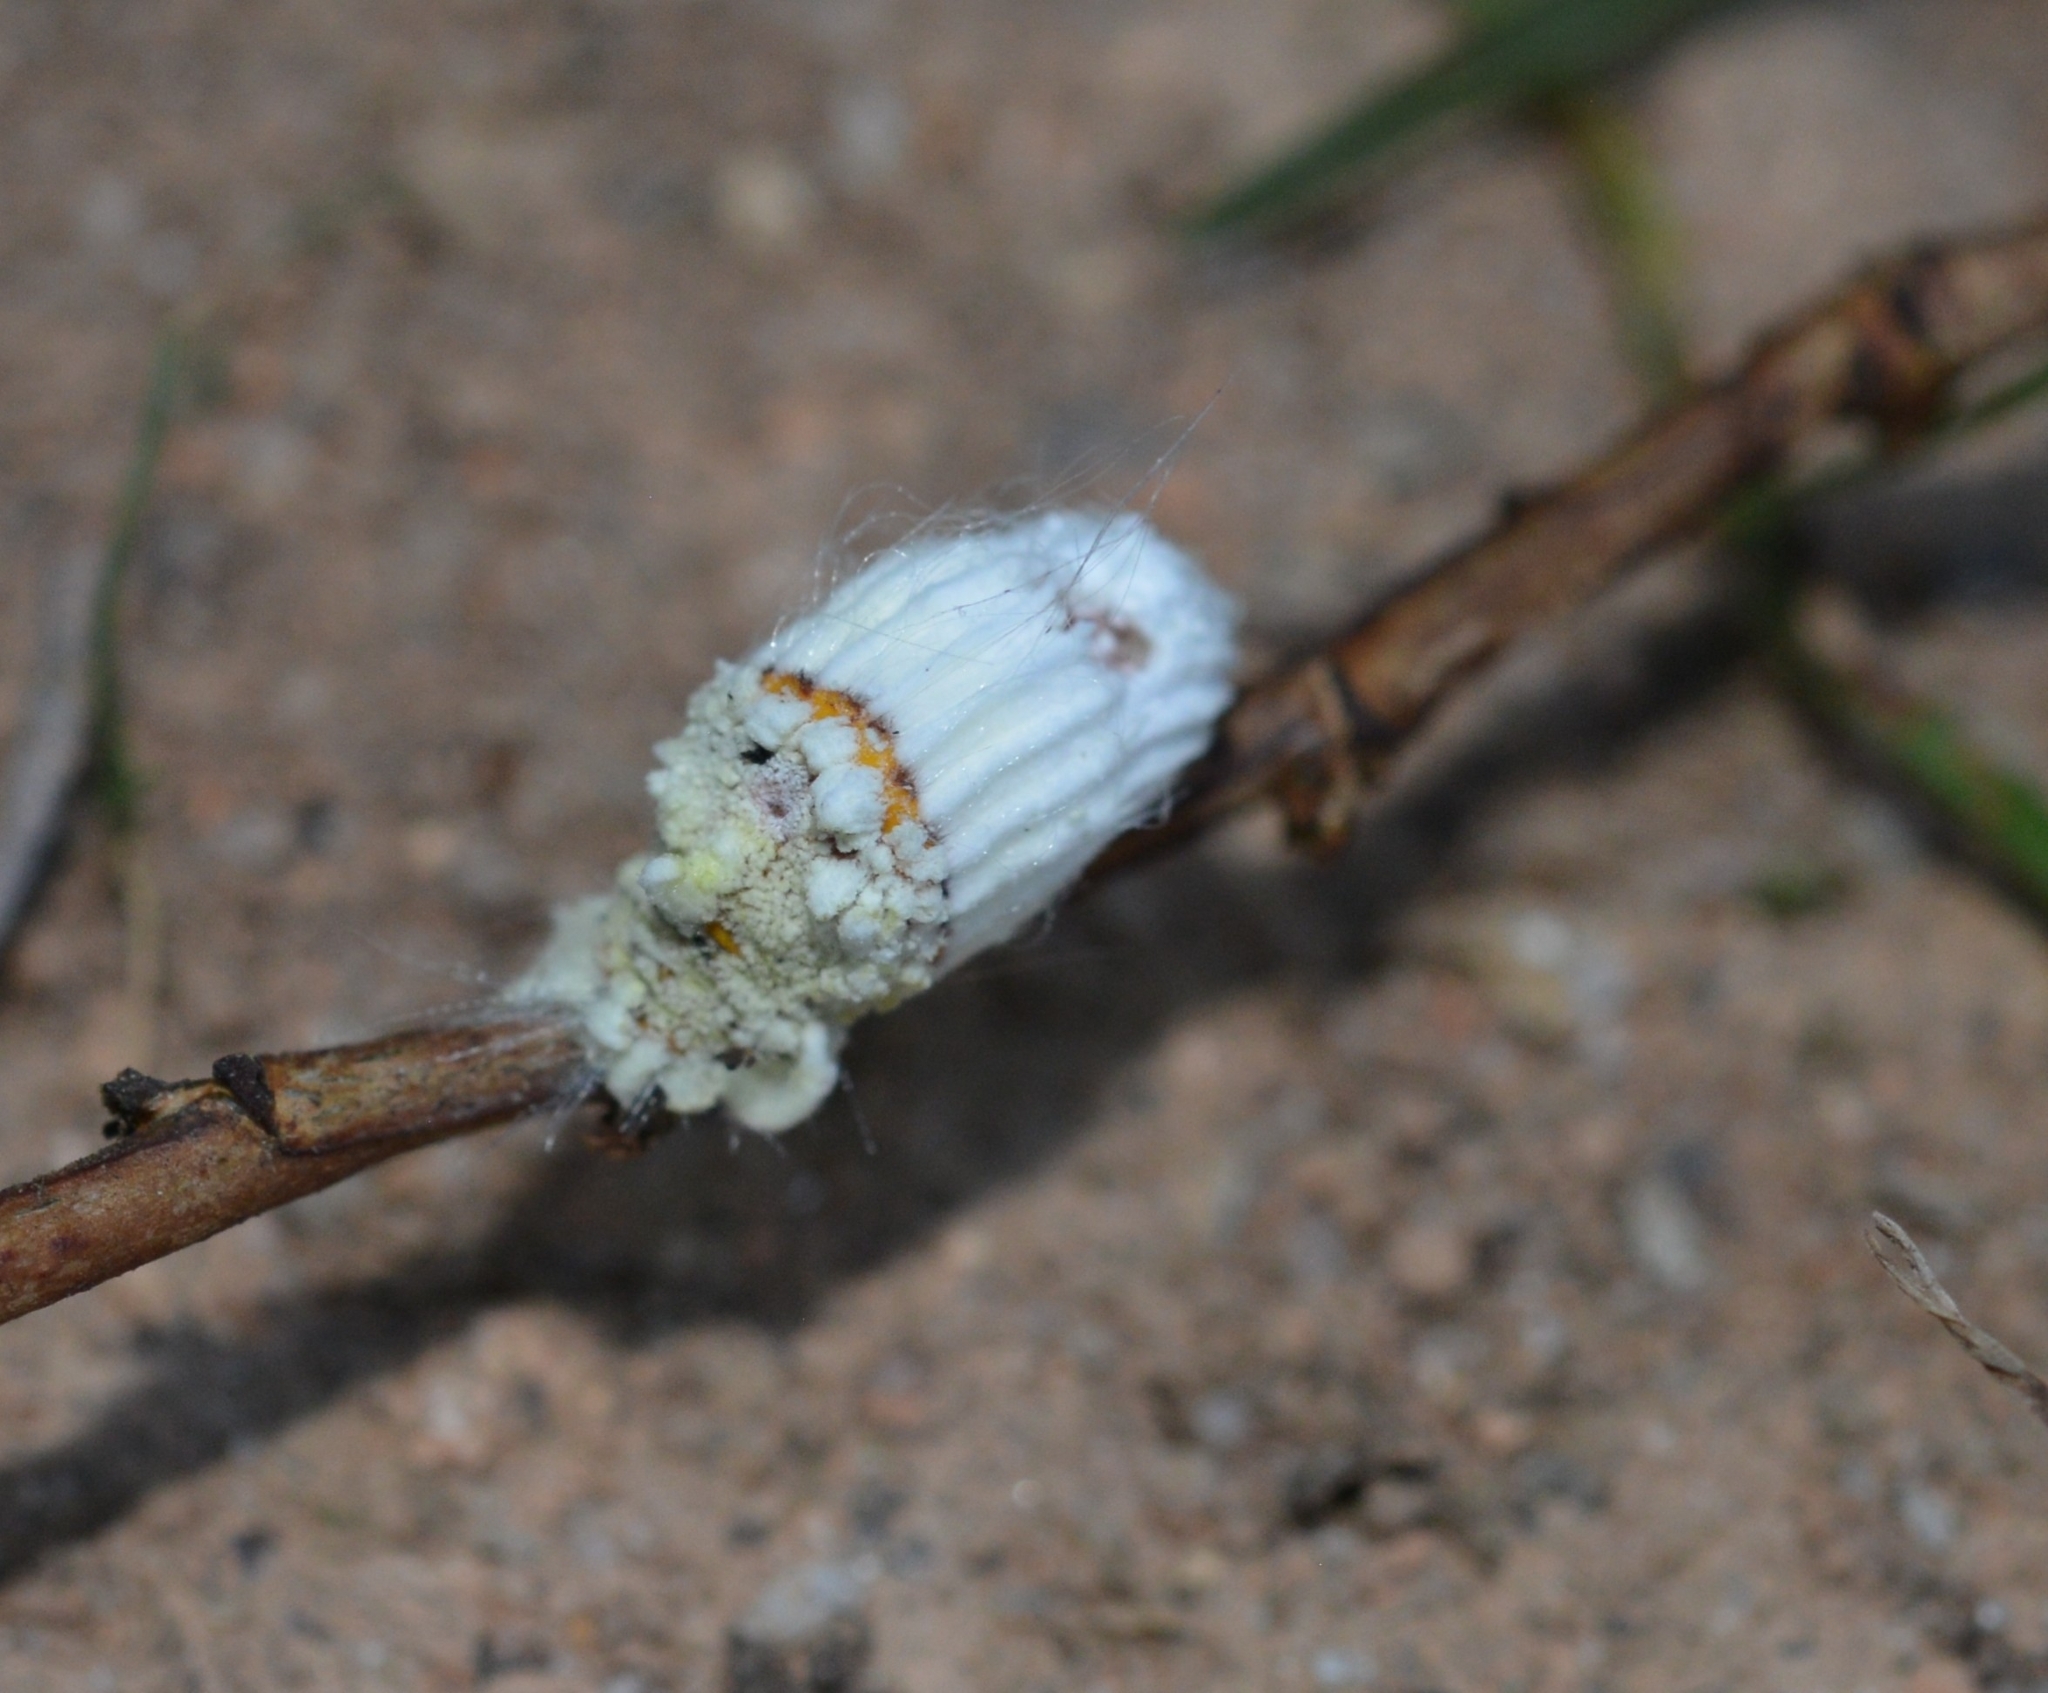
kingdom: Animalia
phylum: Arthropoda
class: Insecta
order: Hemiptera
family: Margarodidae
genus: Icerya
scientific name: Icerya purchasi
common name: Cottony cushion scale
